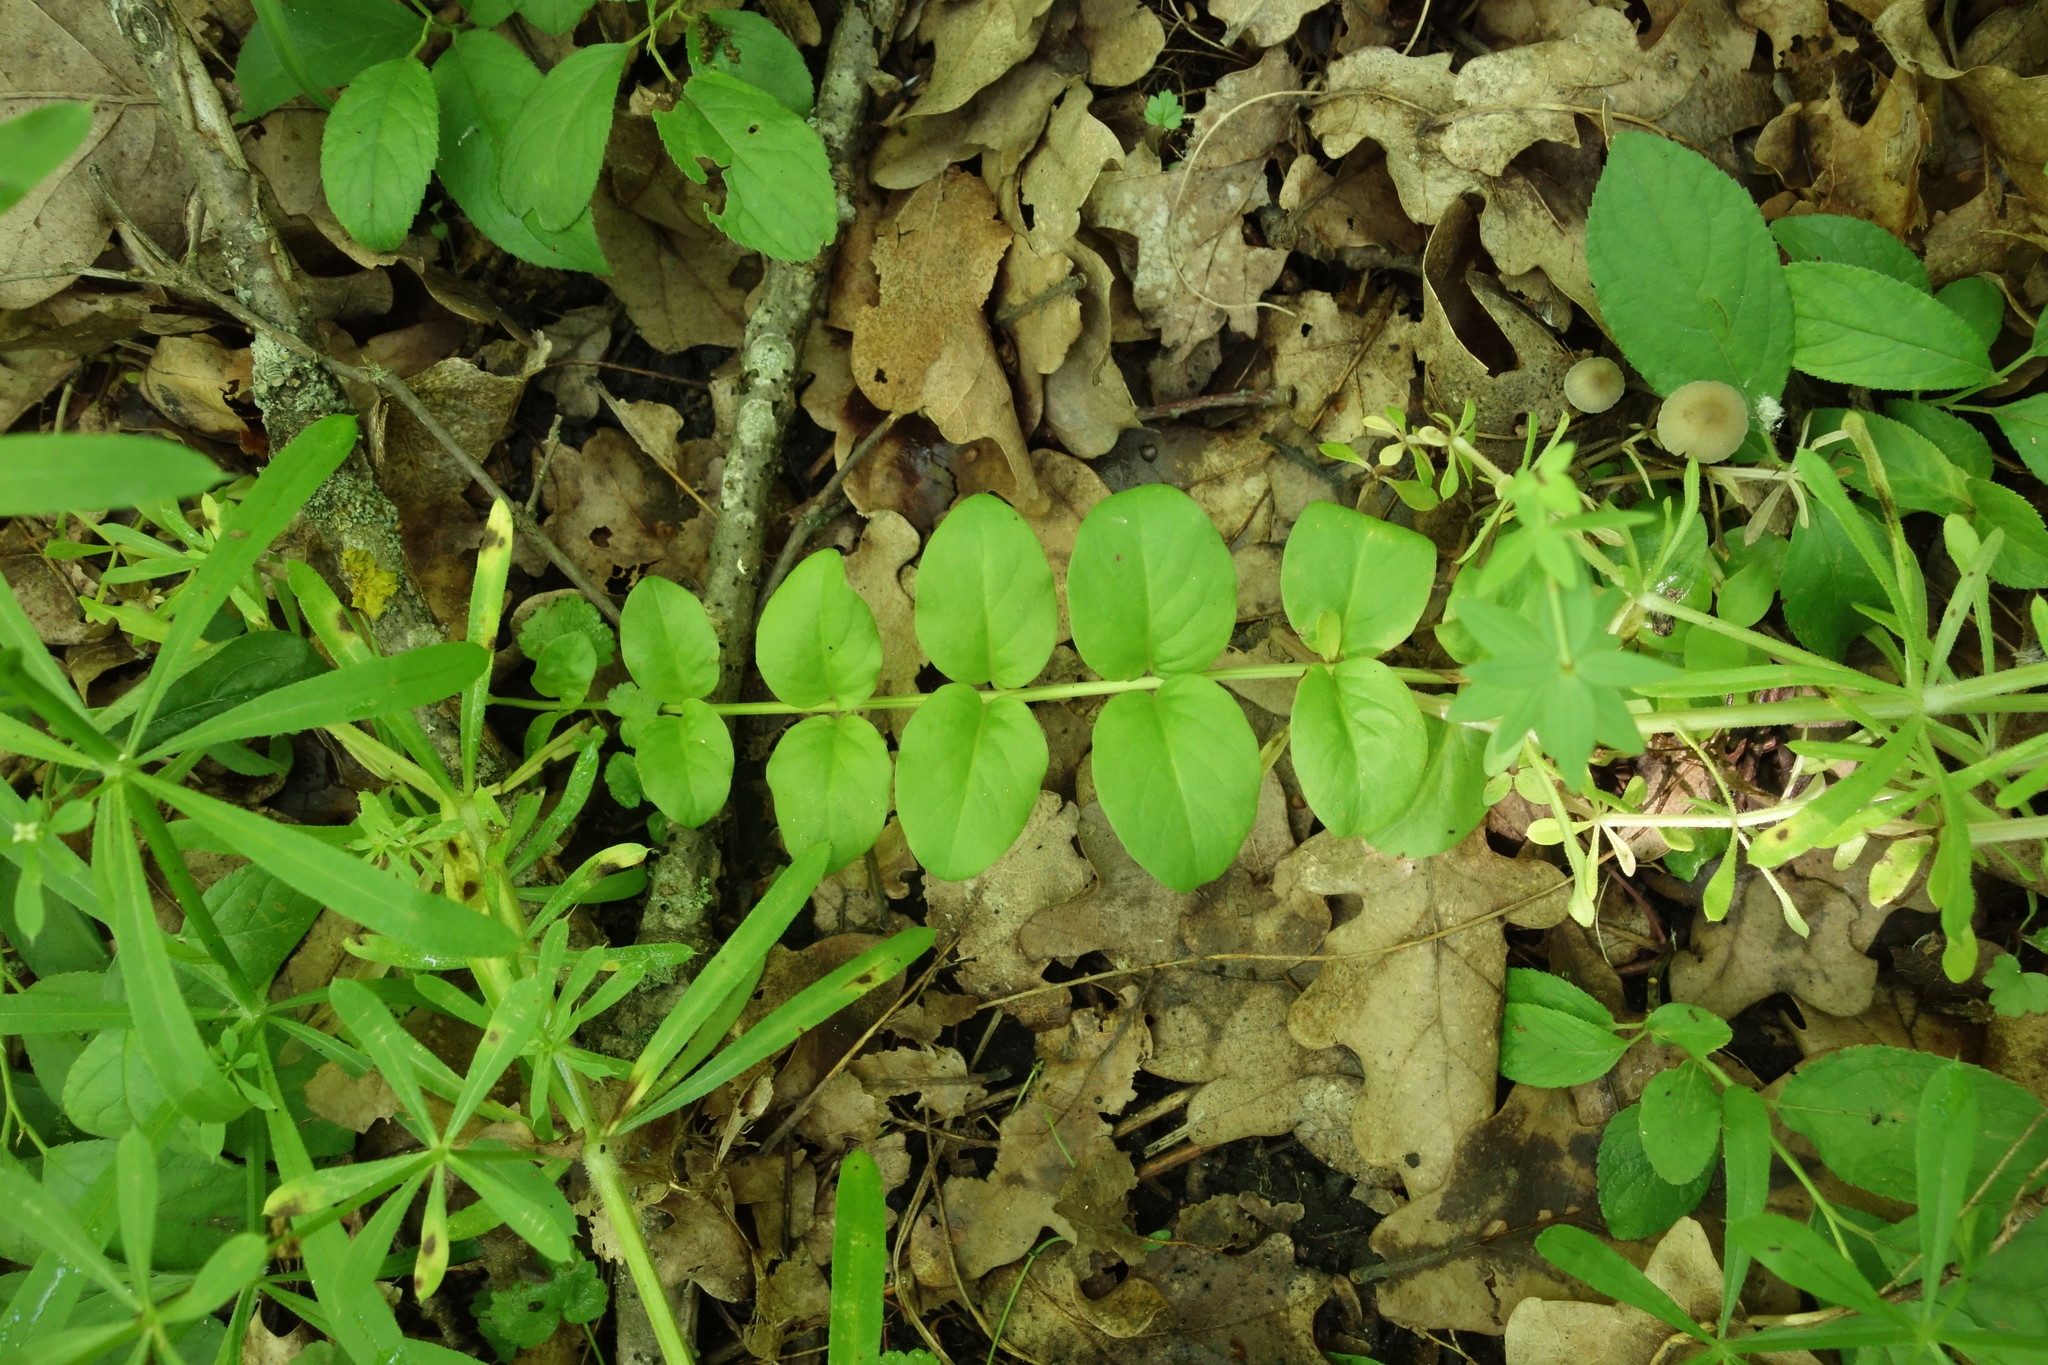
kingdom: Plantae
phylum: Tracheophyta
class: Magnoliopsida
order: Ericales
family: Primulaceae
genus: Lysimachia
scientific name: Lysimachia nummularia
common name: Moneywort
